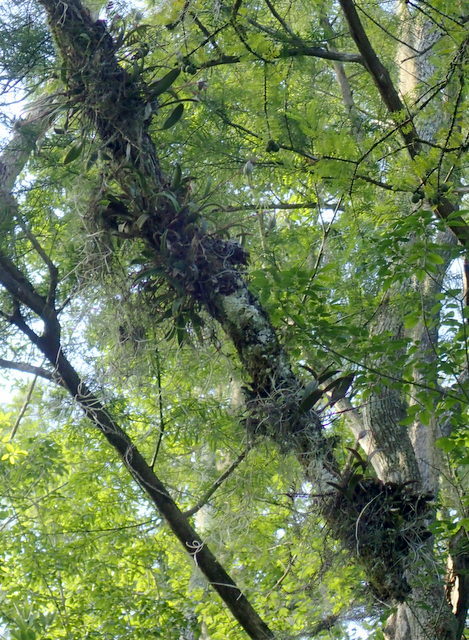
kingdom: Plantae
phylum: Tracheophyta
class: Liliopsida
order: Asparagales
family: Orchidaceae
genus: Epidendrum
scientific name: Epidendrum conopseum
